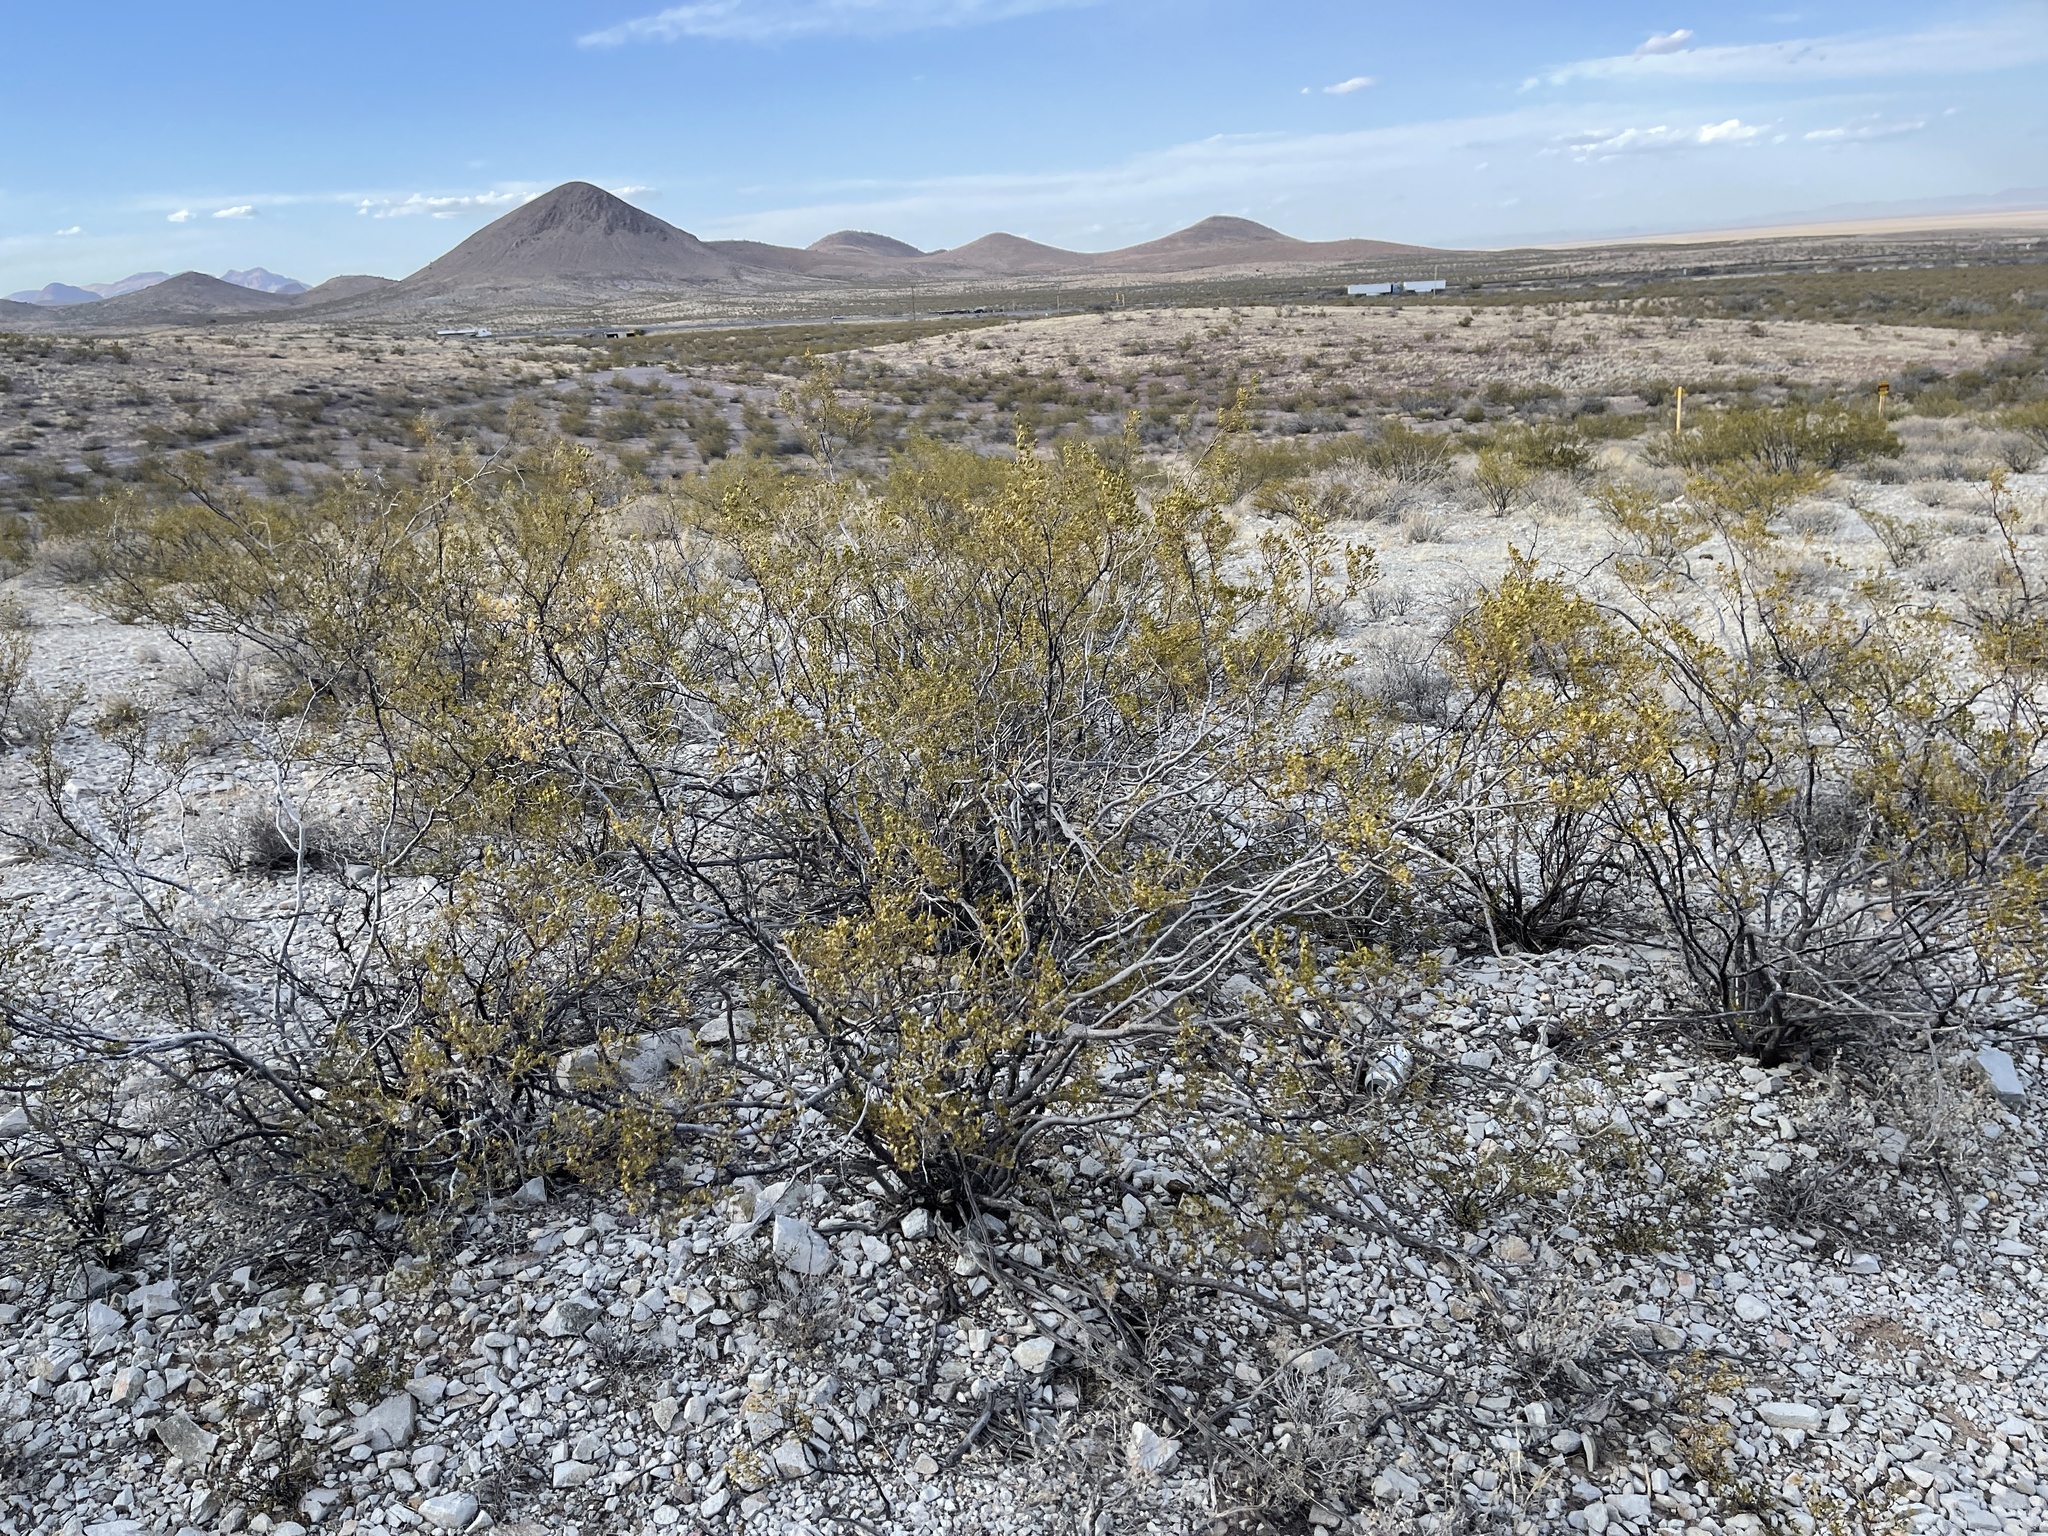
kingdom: Plantae
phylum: Tracheophyta
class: Magnoliopsida
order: Zygophyllales
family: Zygophyllaceae
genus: Larrea
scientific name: Larrea tridentata
